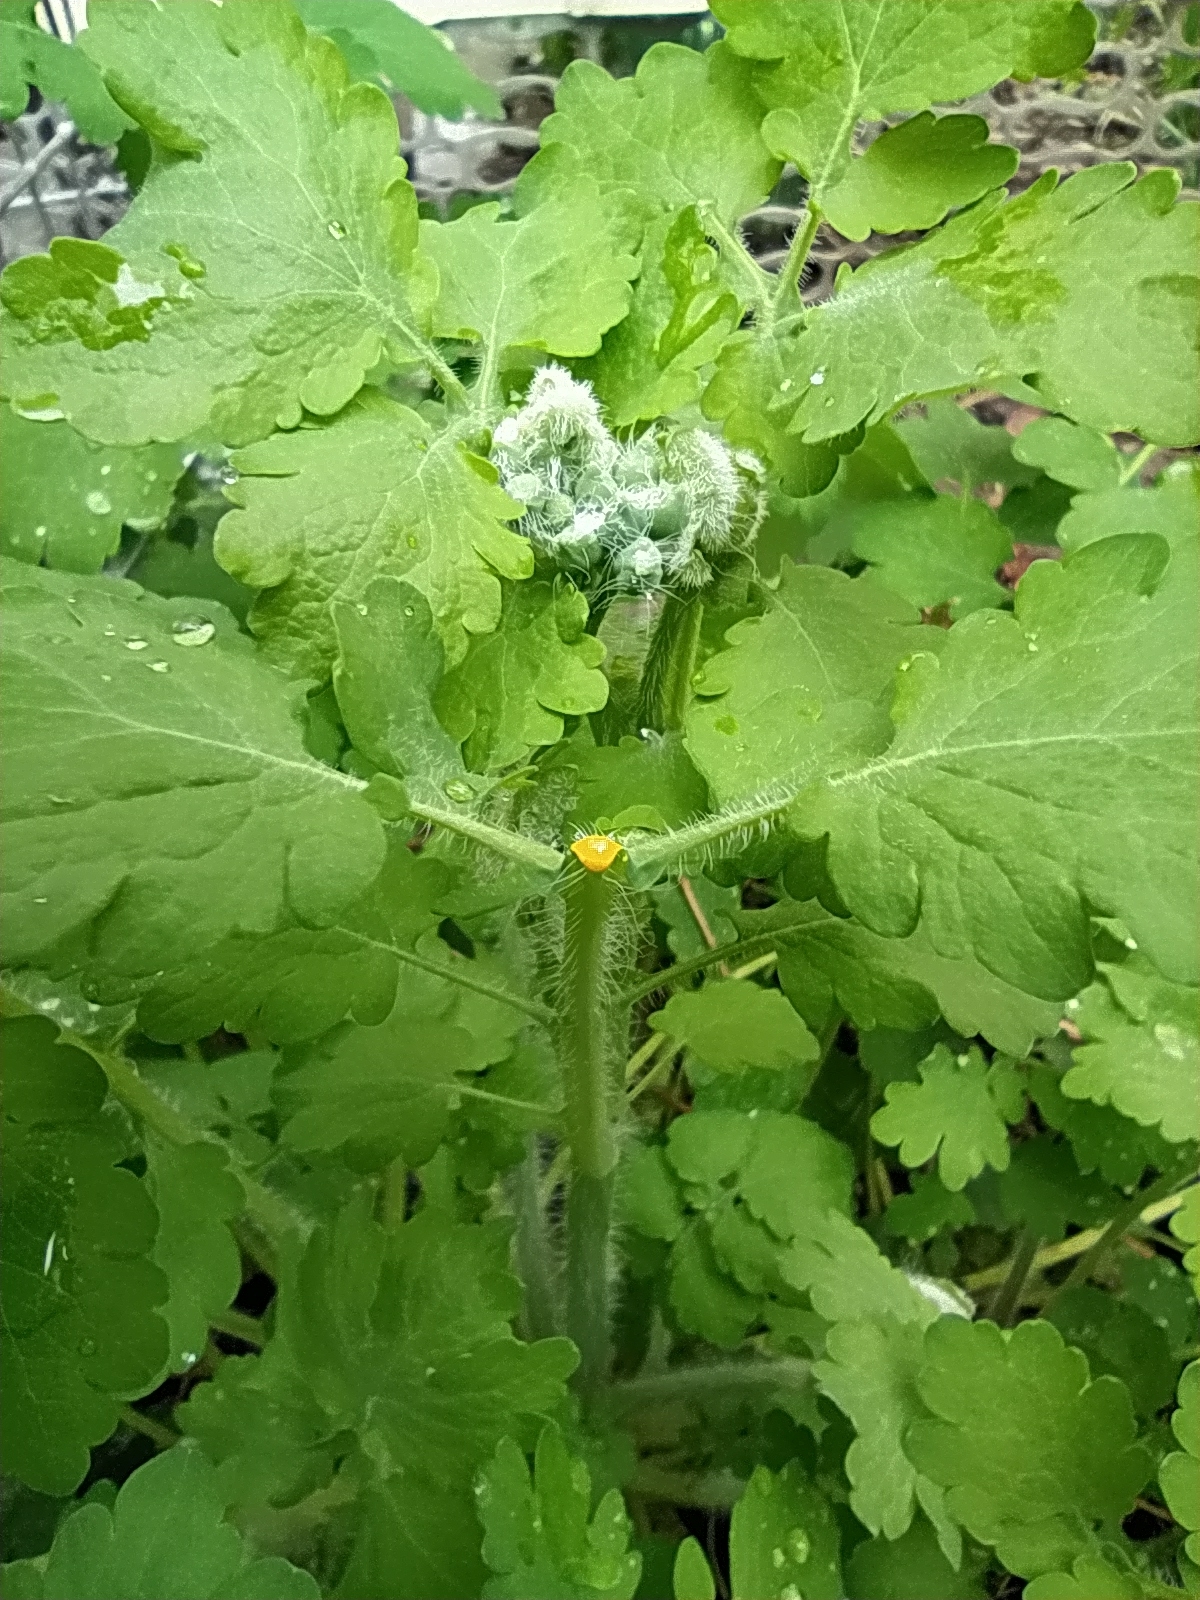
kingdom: Plantae
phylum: Tracheophyta
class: Magnoliopsida
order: Ranunculales
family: Papaveraceae
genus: Chelidonium
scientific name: Chelidonium majus
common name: Greater celandine
